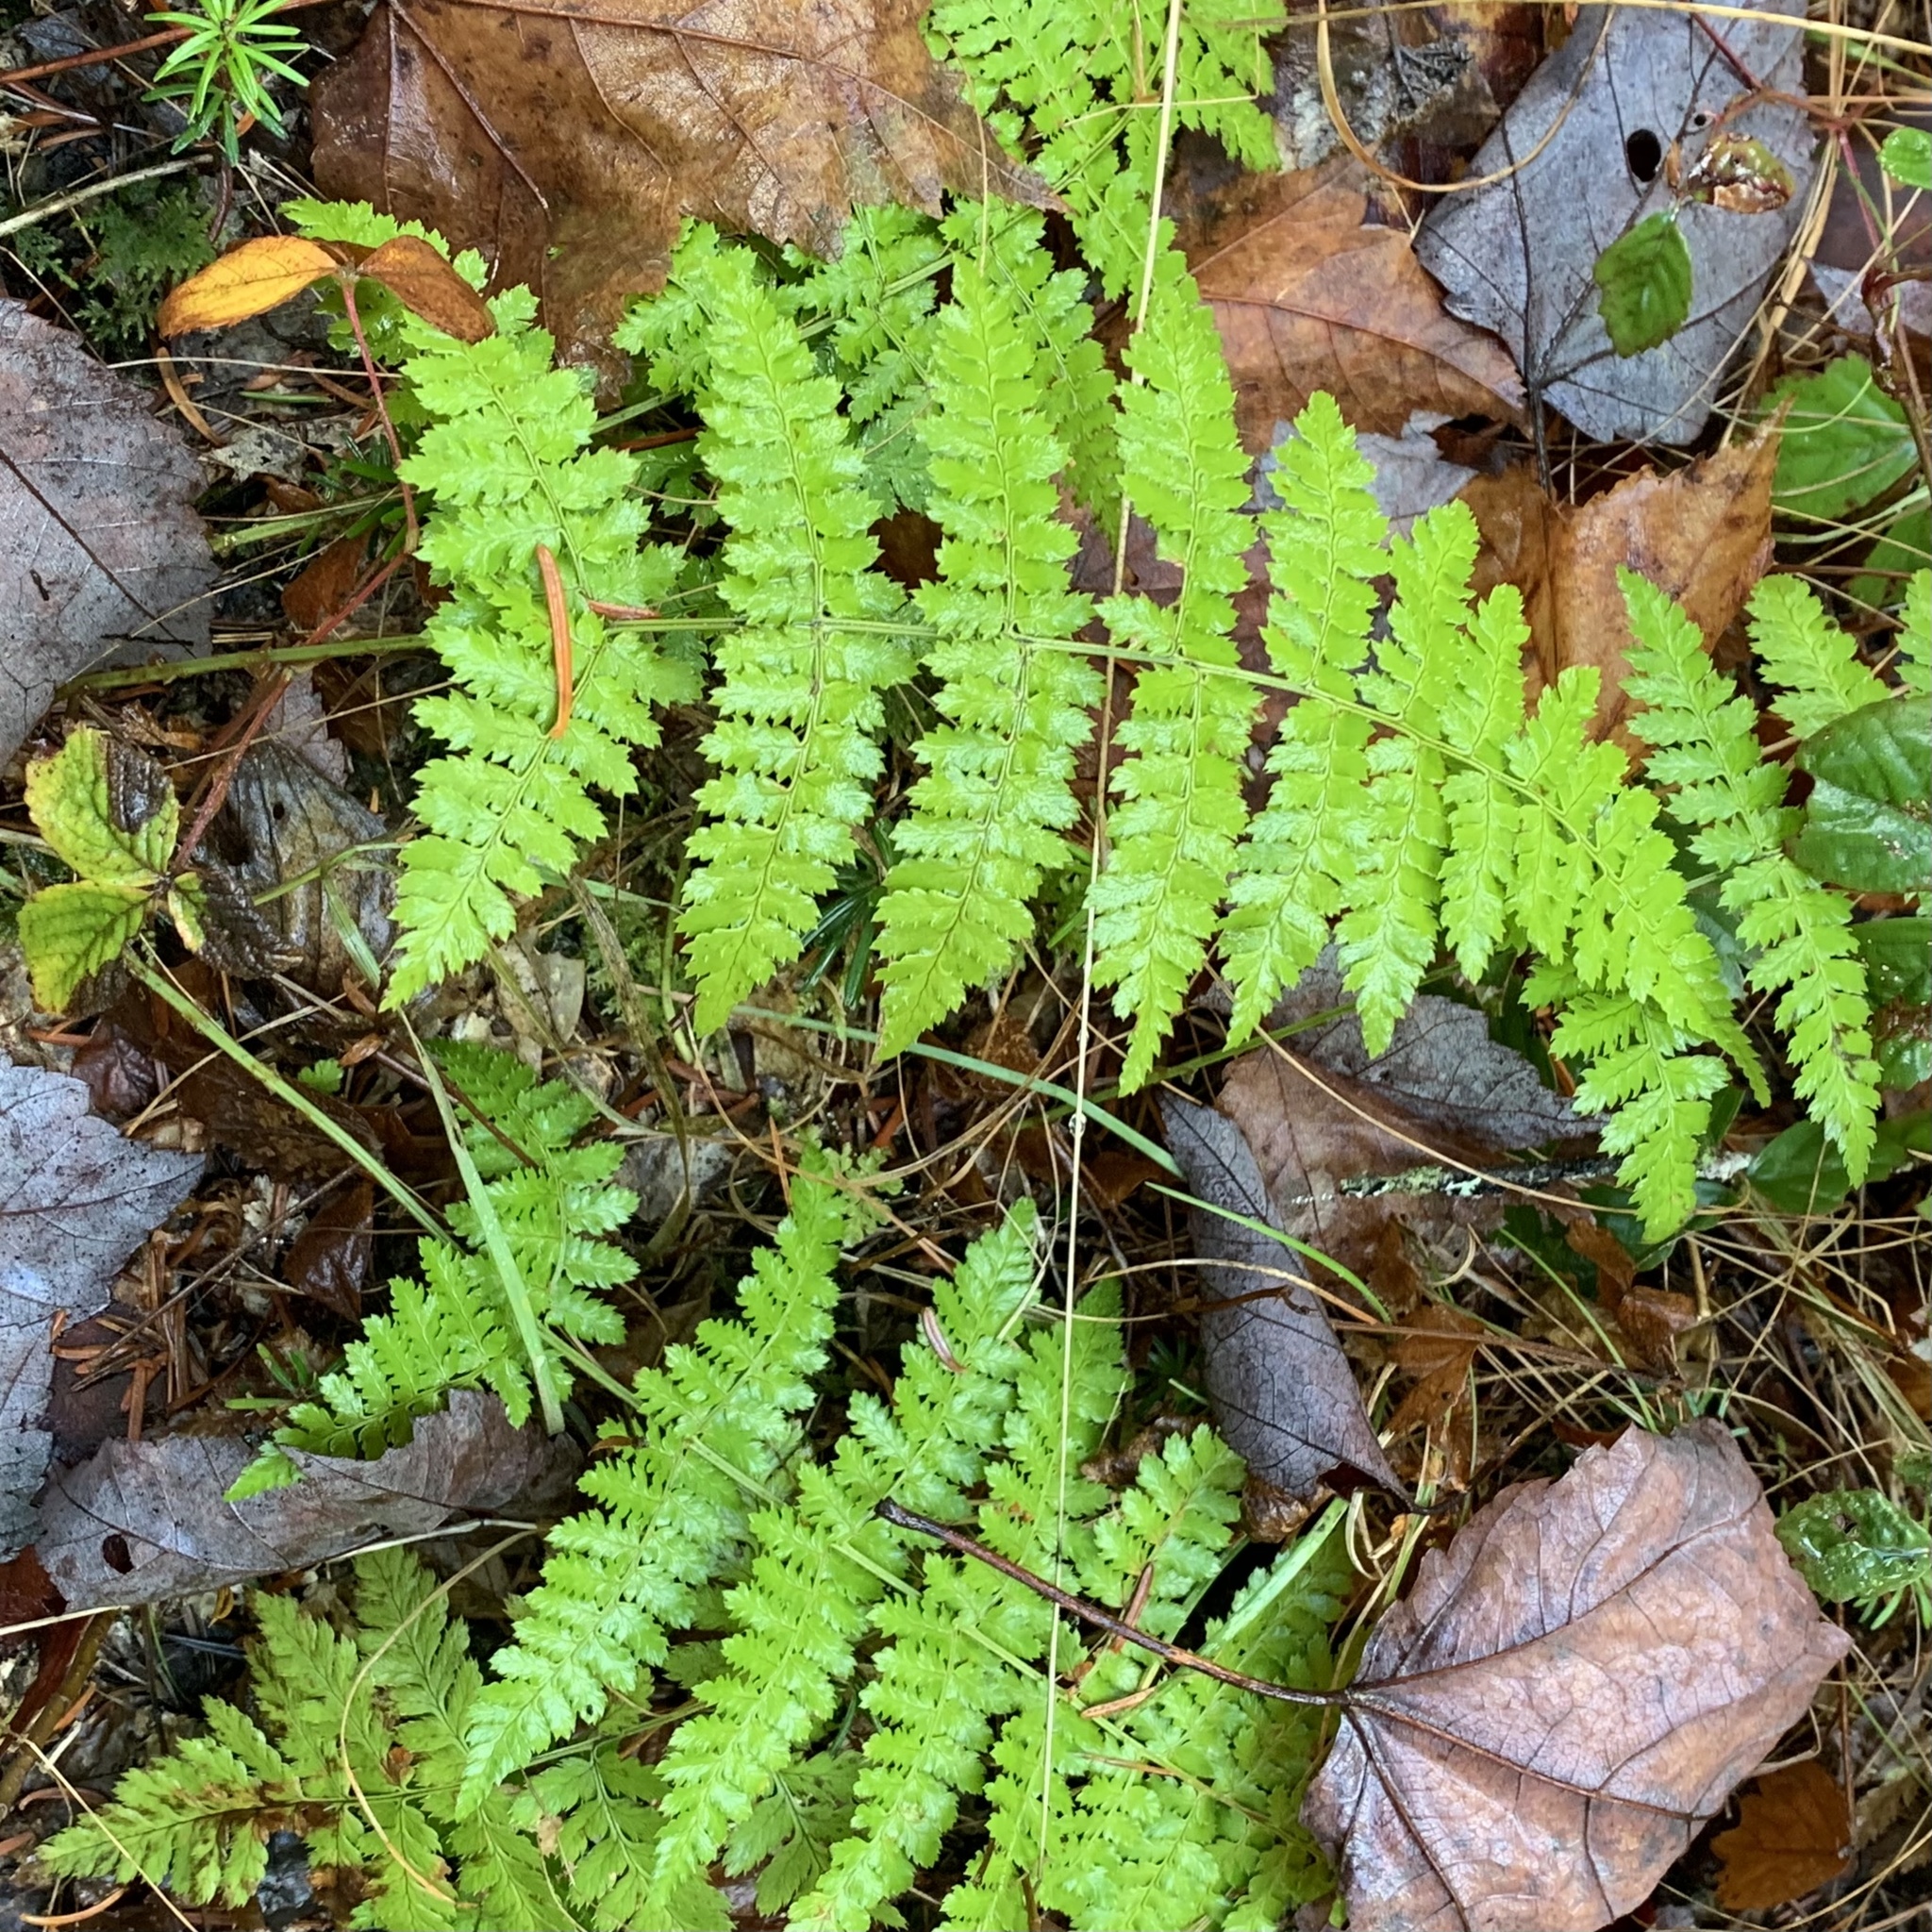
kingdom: Plantae
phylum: Tracheophyta
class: Polypodiopsida
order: Polypodiales
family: Dryopteridaceae
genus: Dryopteris
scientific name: Dryopteris intermedia
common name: Evergreen wood fern
